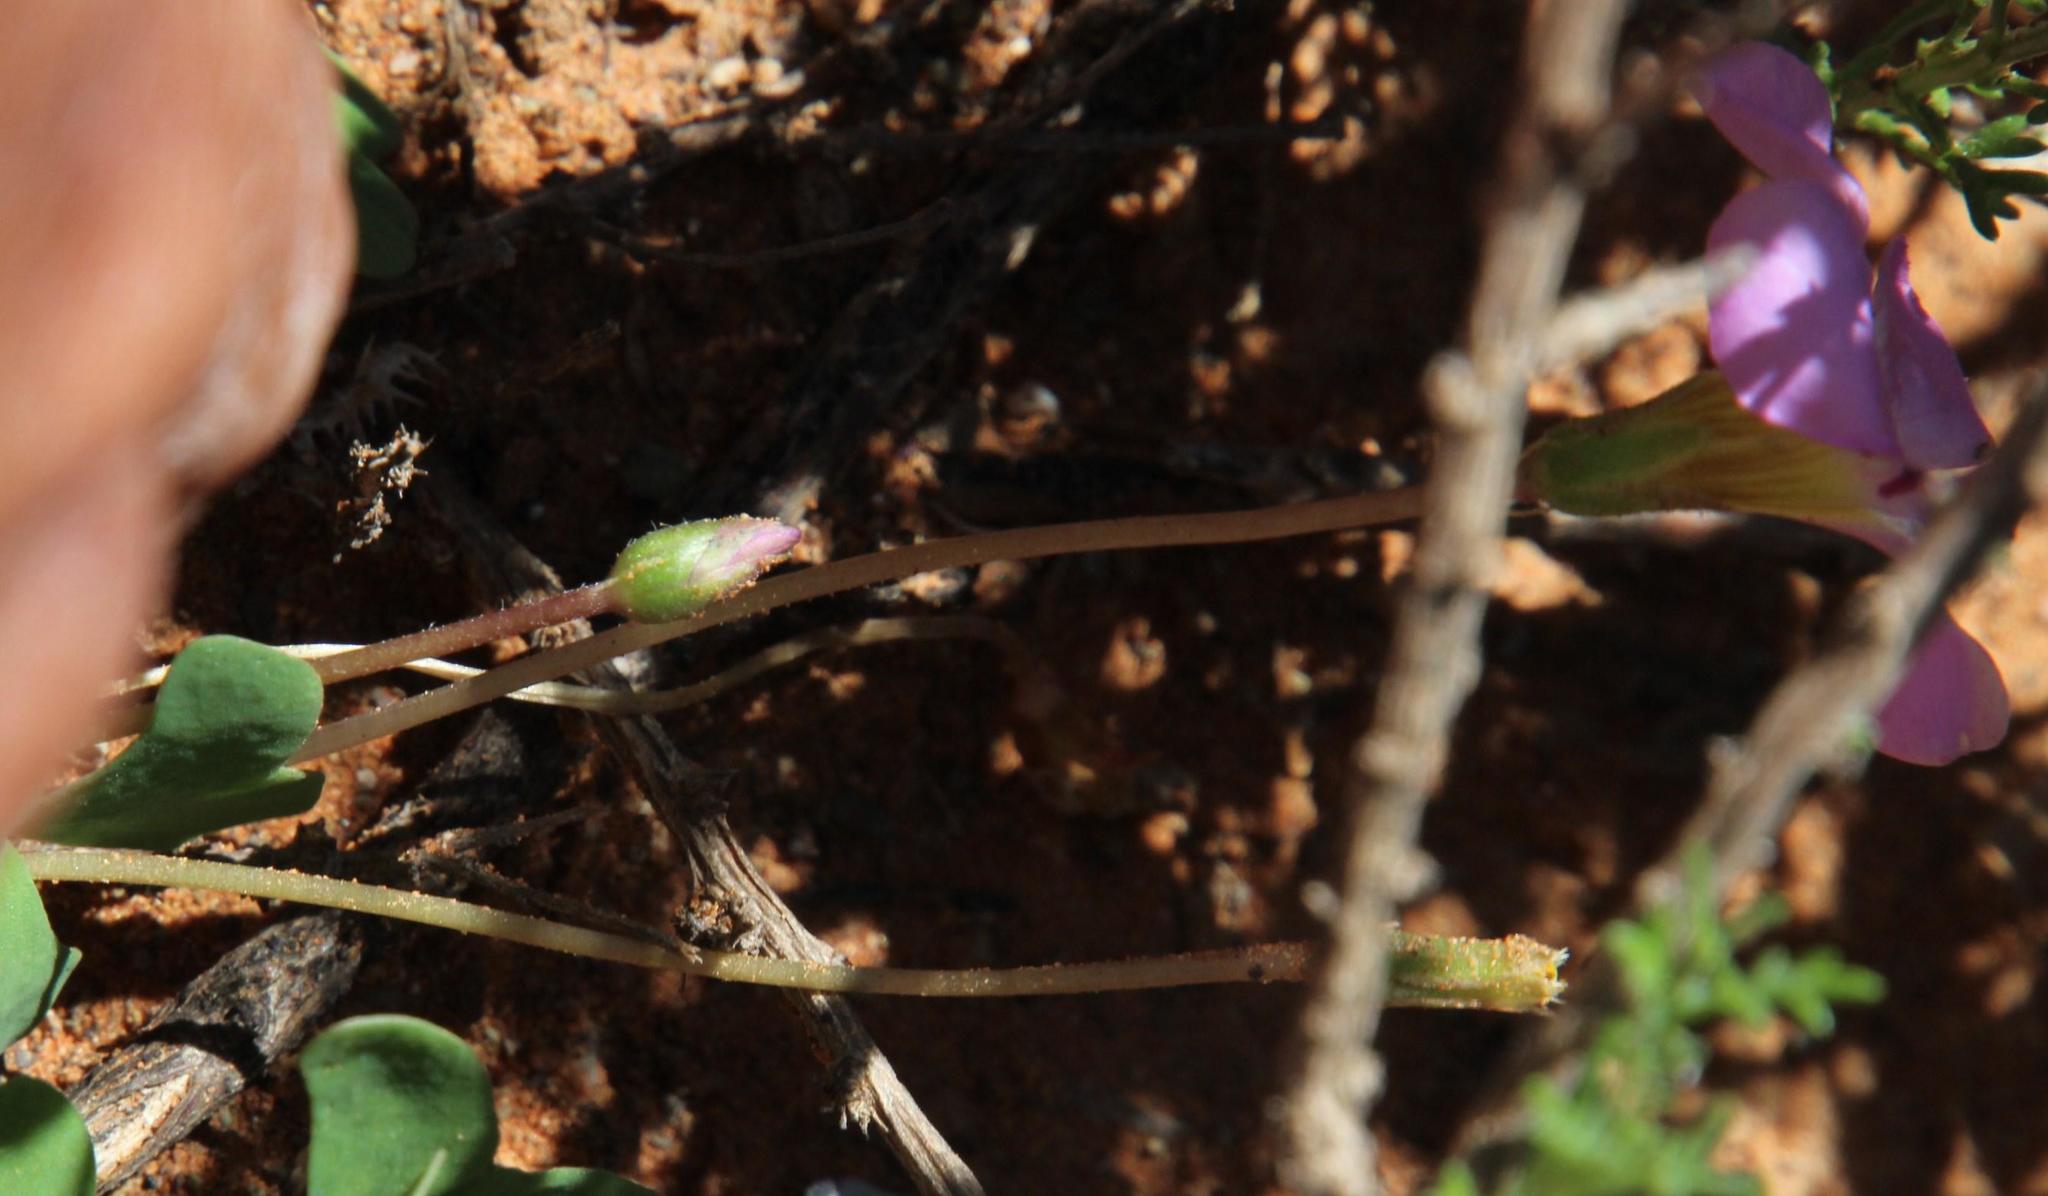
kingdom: Plantae
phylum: Tracheophyta
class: Magnoliopsida
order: Oxalidales
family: Oxalidaceae
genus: Oxalis
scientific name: Oxalis obliquifolia
